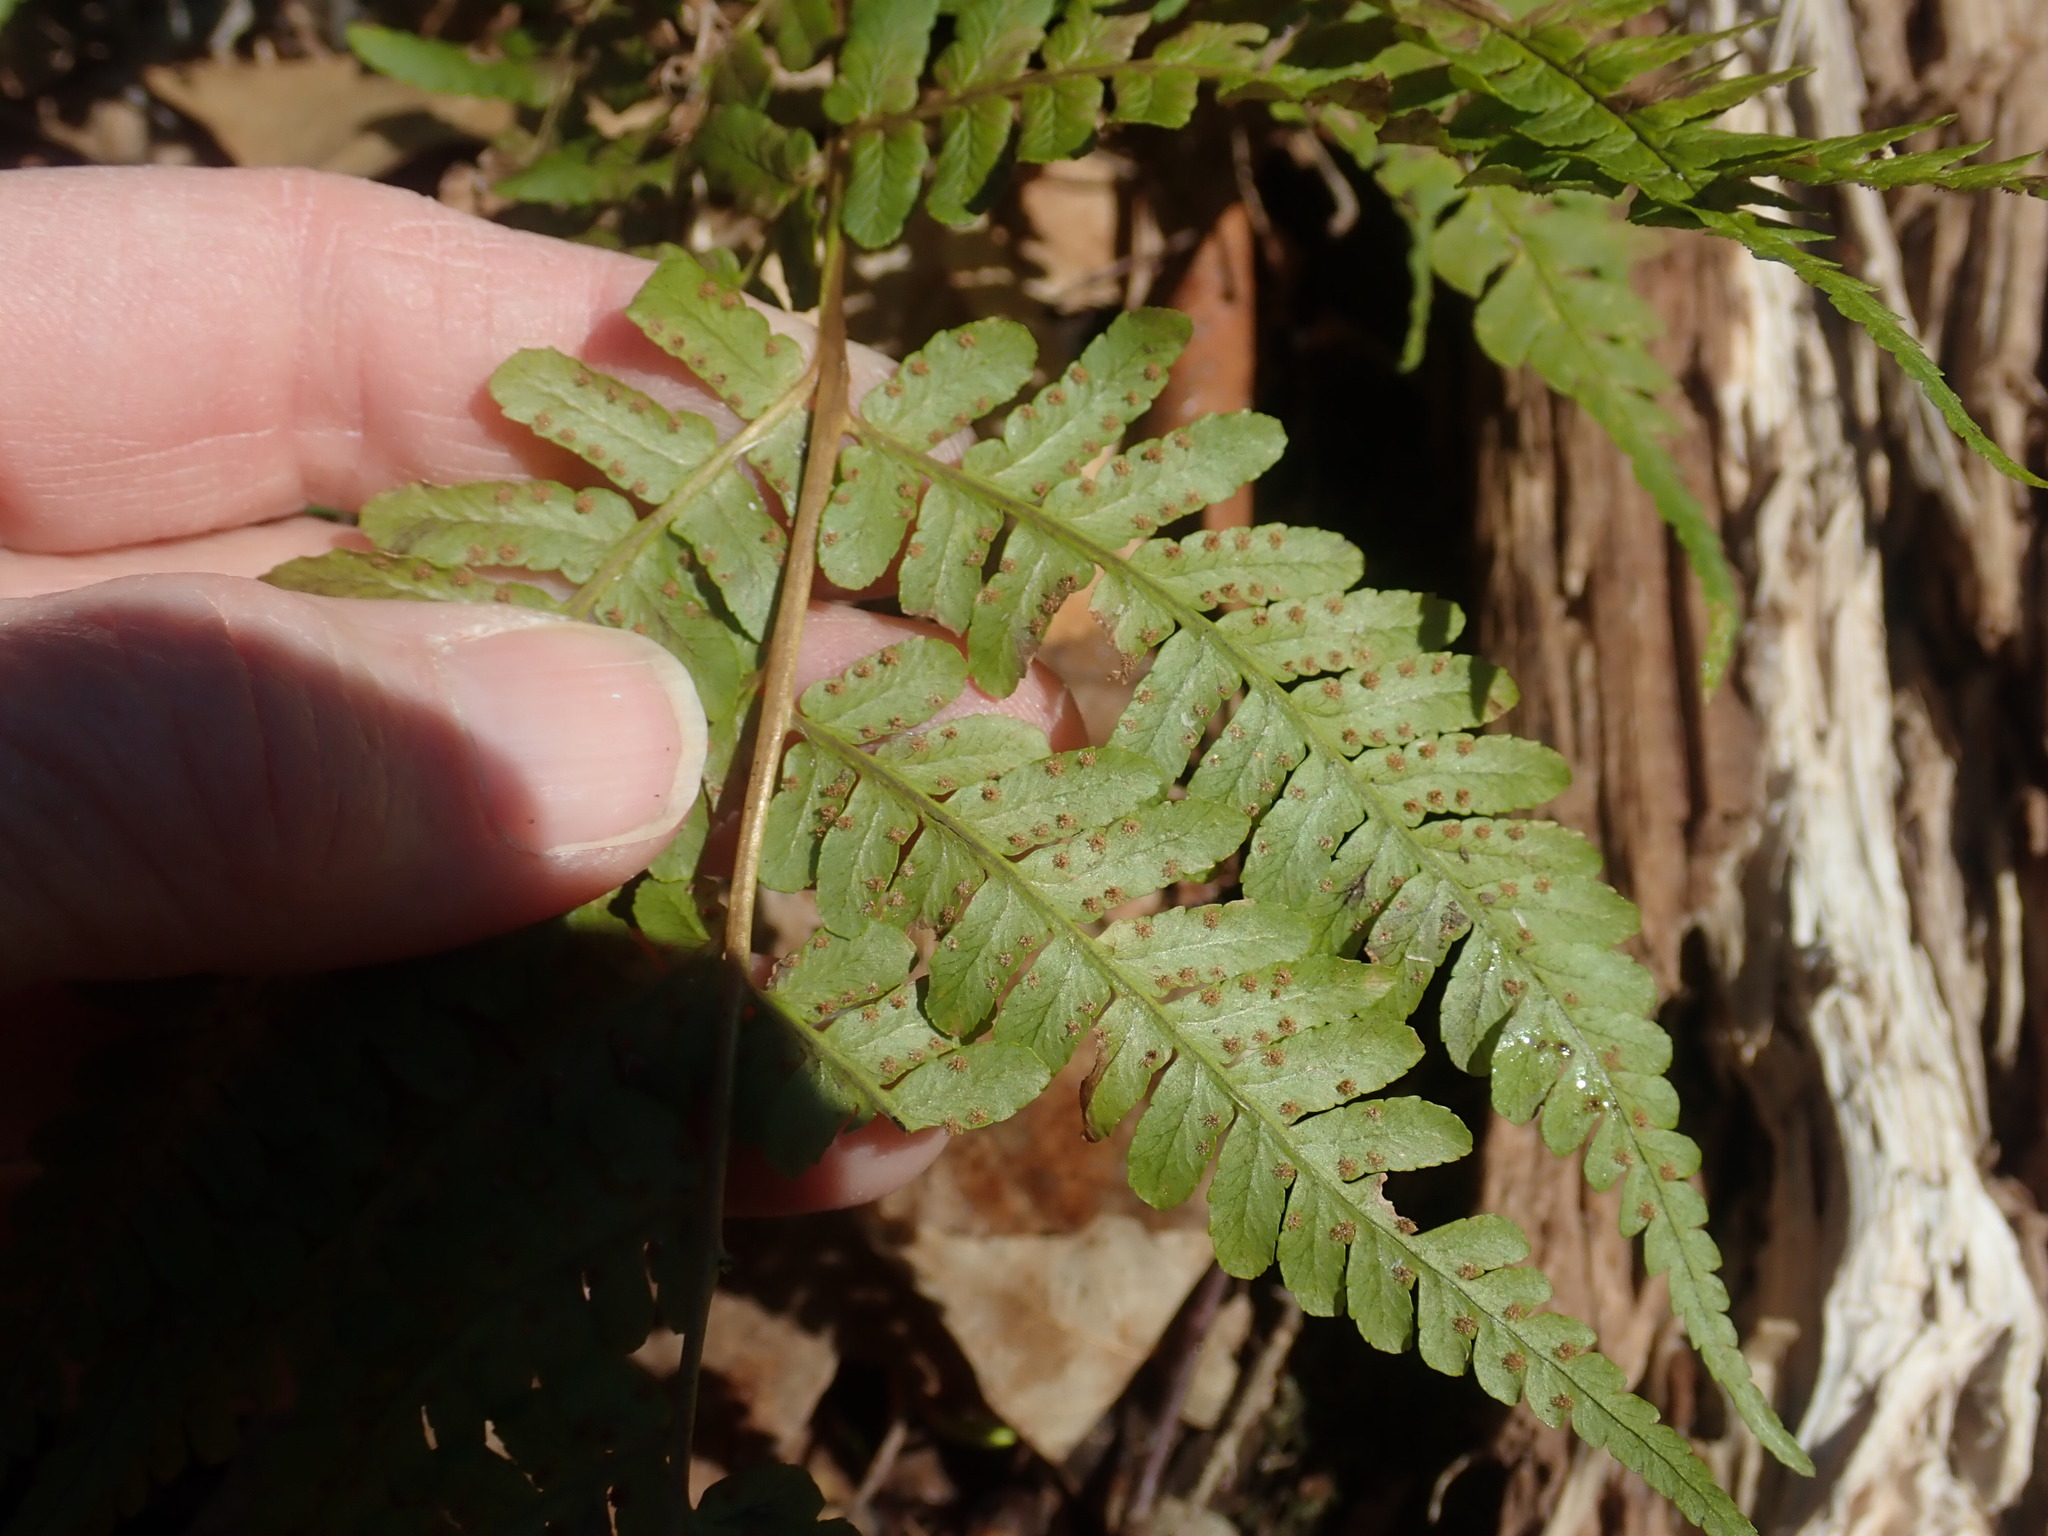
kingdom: Plantae
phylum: Tracheophyta
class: Polypodiopsida
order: Polypodiales
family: Dryopteridaceae
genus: Dryopteris
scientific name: Dryopteris marginalis
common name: Marginal wood fern
